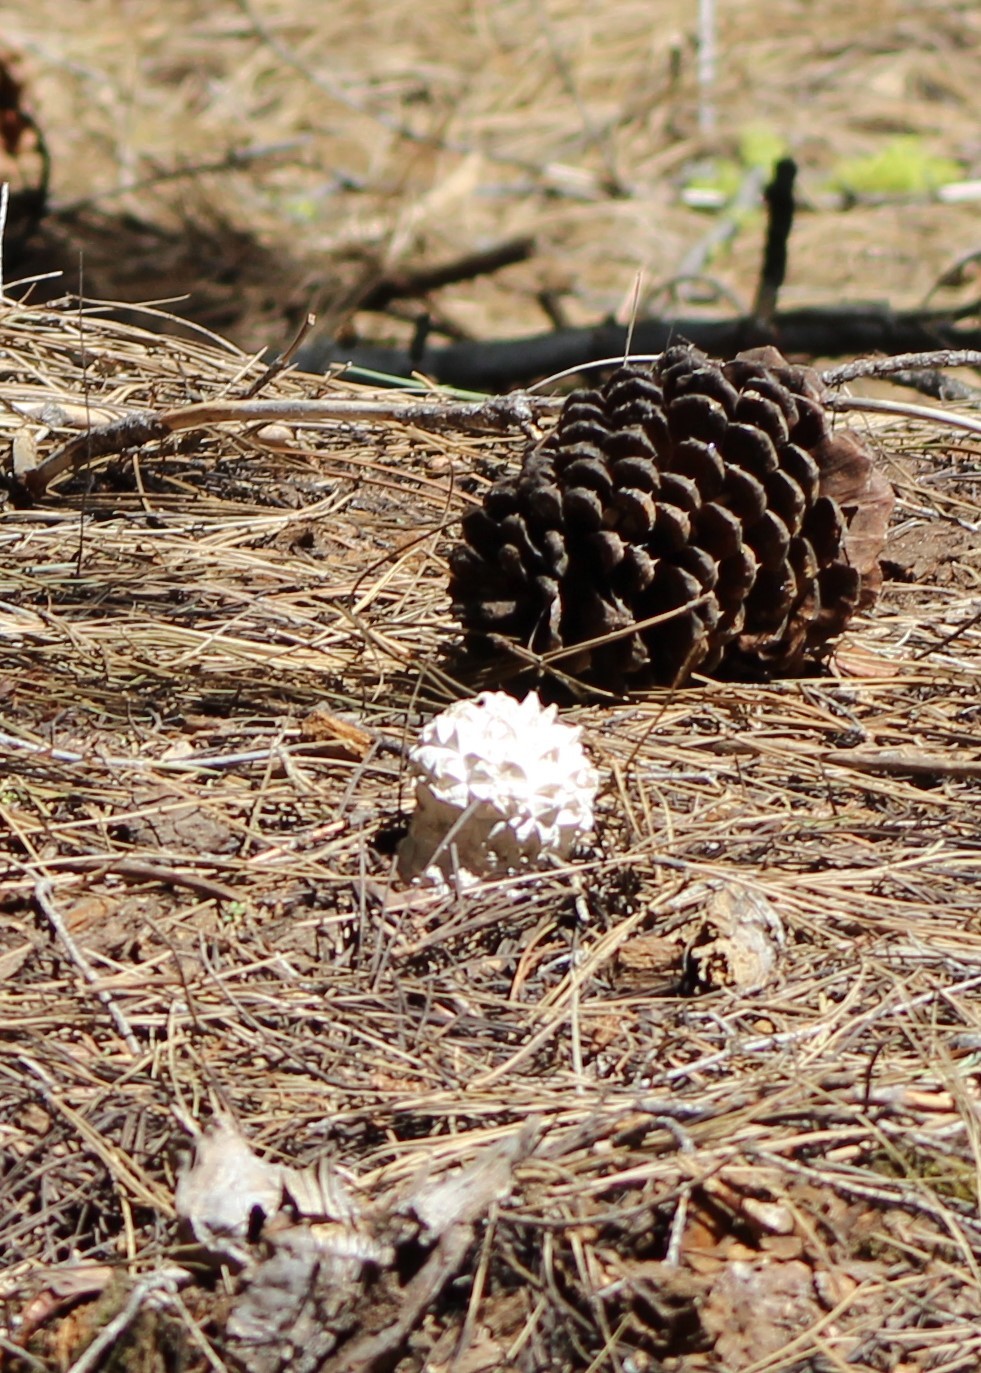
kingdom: Fungi
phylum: Basidiomycota
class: Agaricomycetes
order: Agaricales
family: Lycoperdaceae
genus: Calvatia
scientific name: Calvatia sculpta
